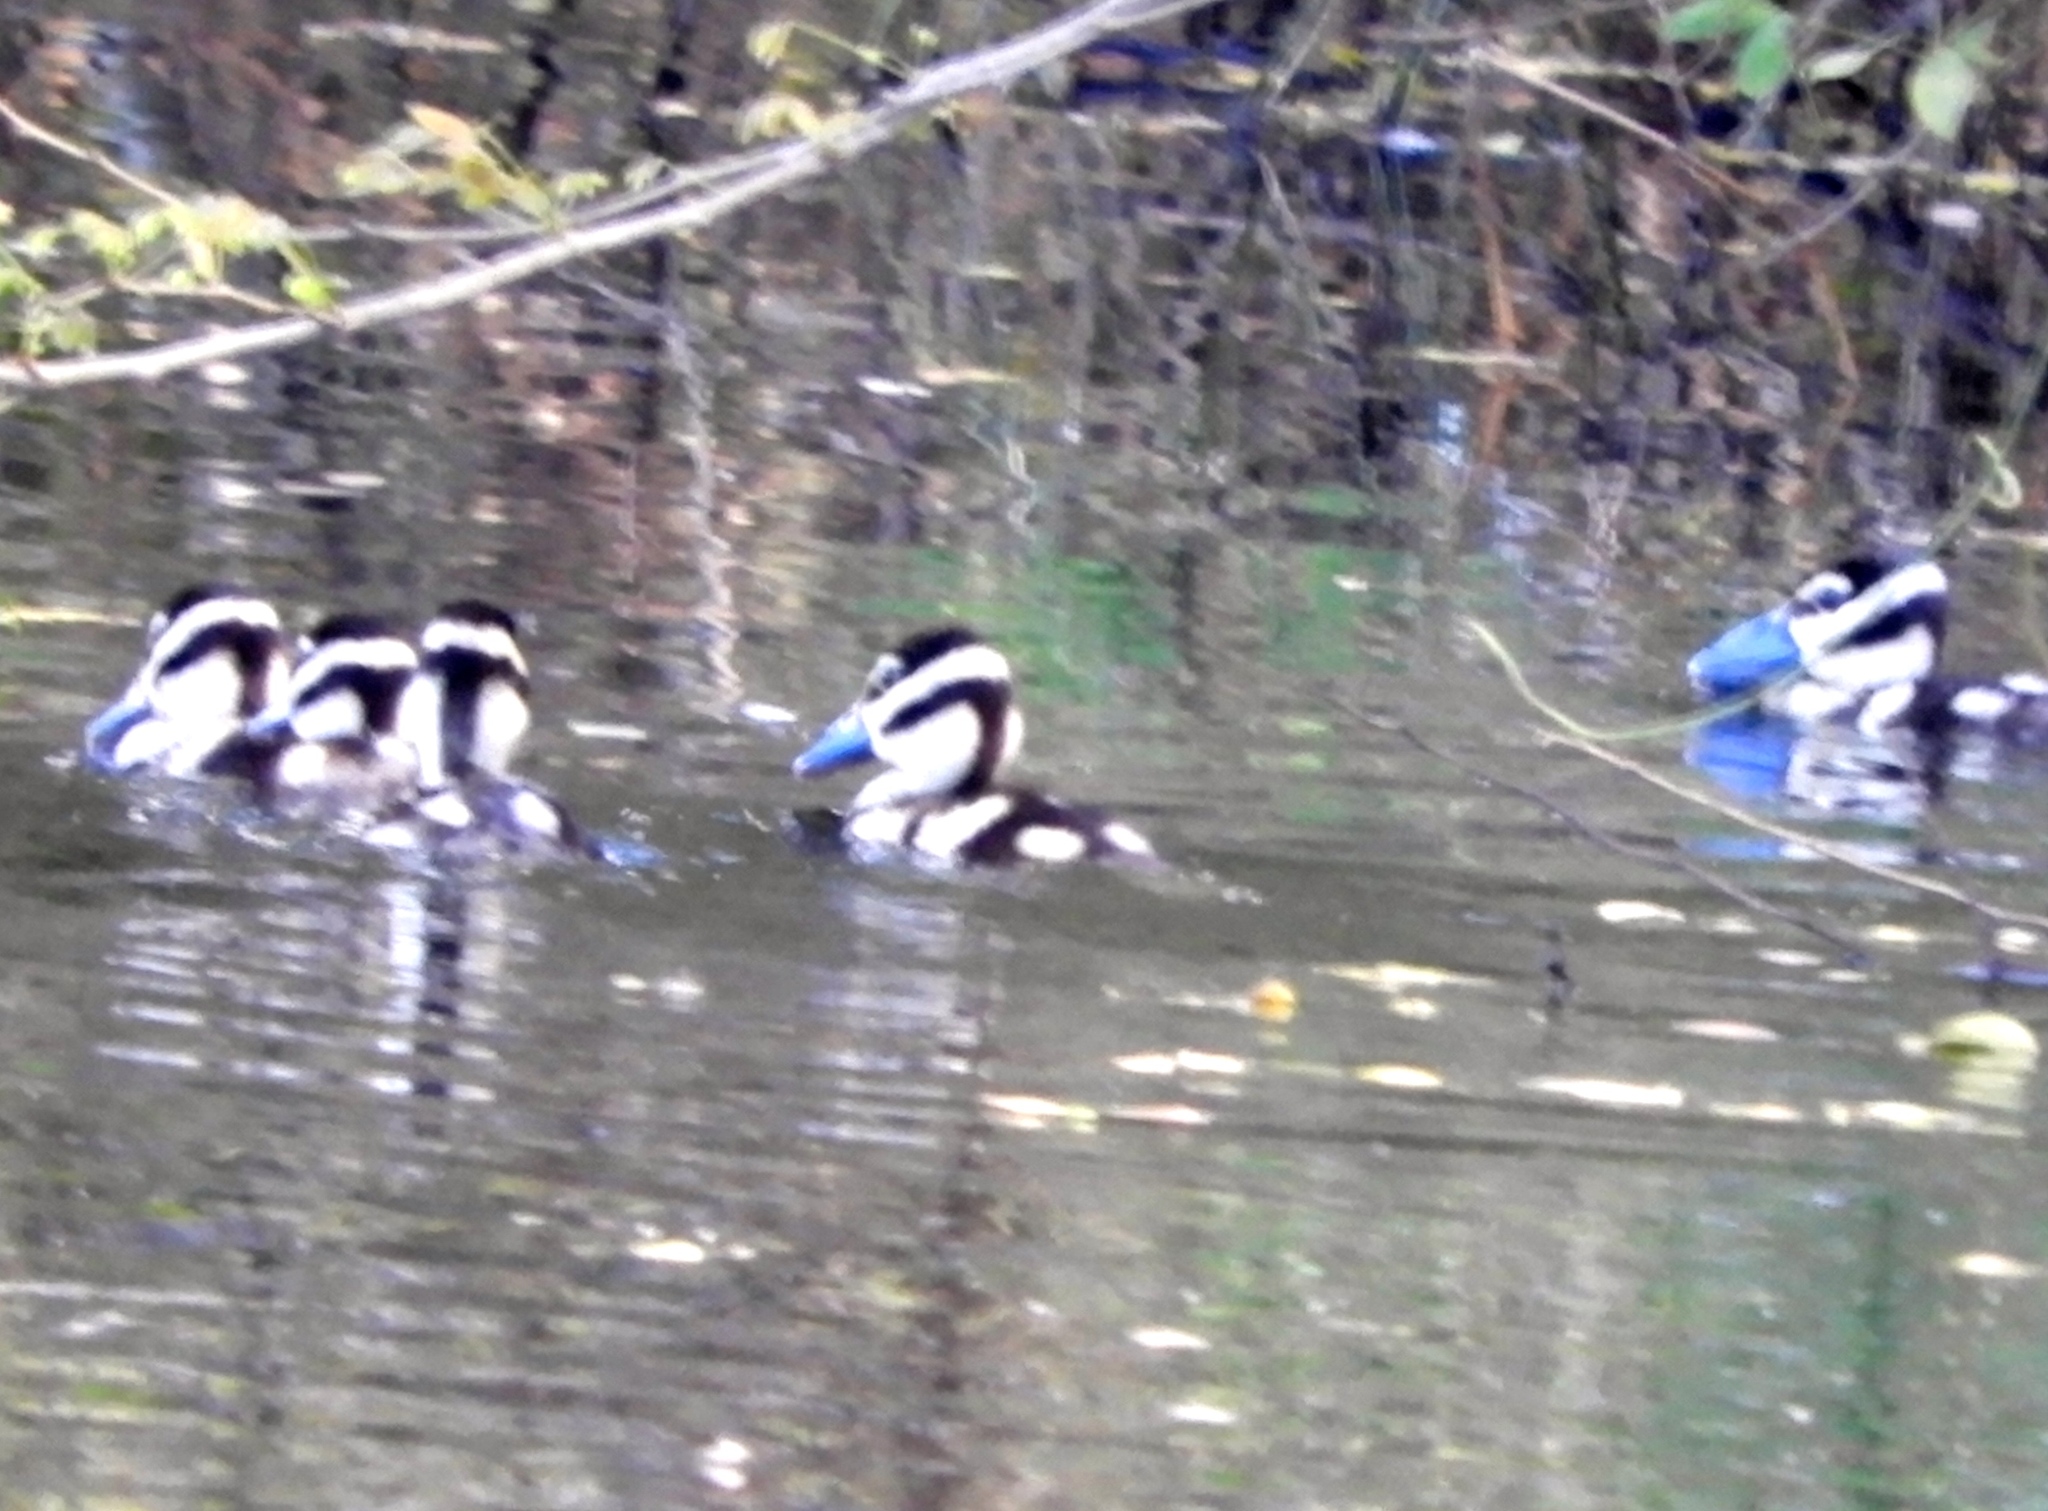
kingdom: Animalia
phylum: Chordata
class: Aves
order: Anseriformes
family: Anatidae
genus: Dendrocygna
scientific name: Dendrocygna autumnalis
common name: Black-bellied whistling duck
